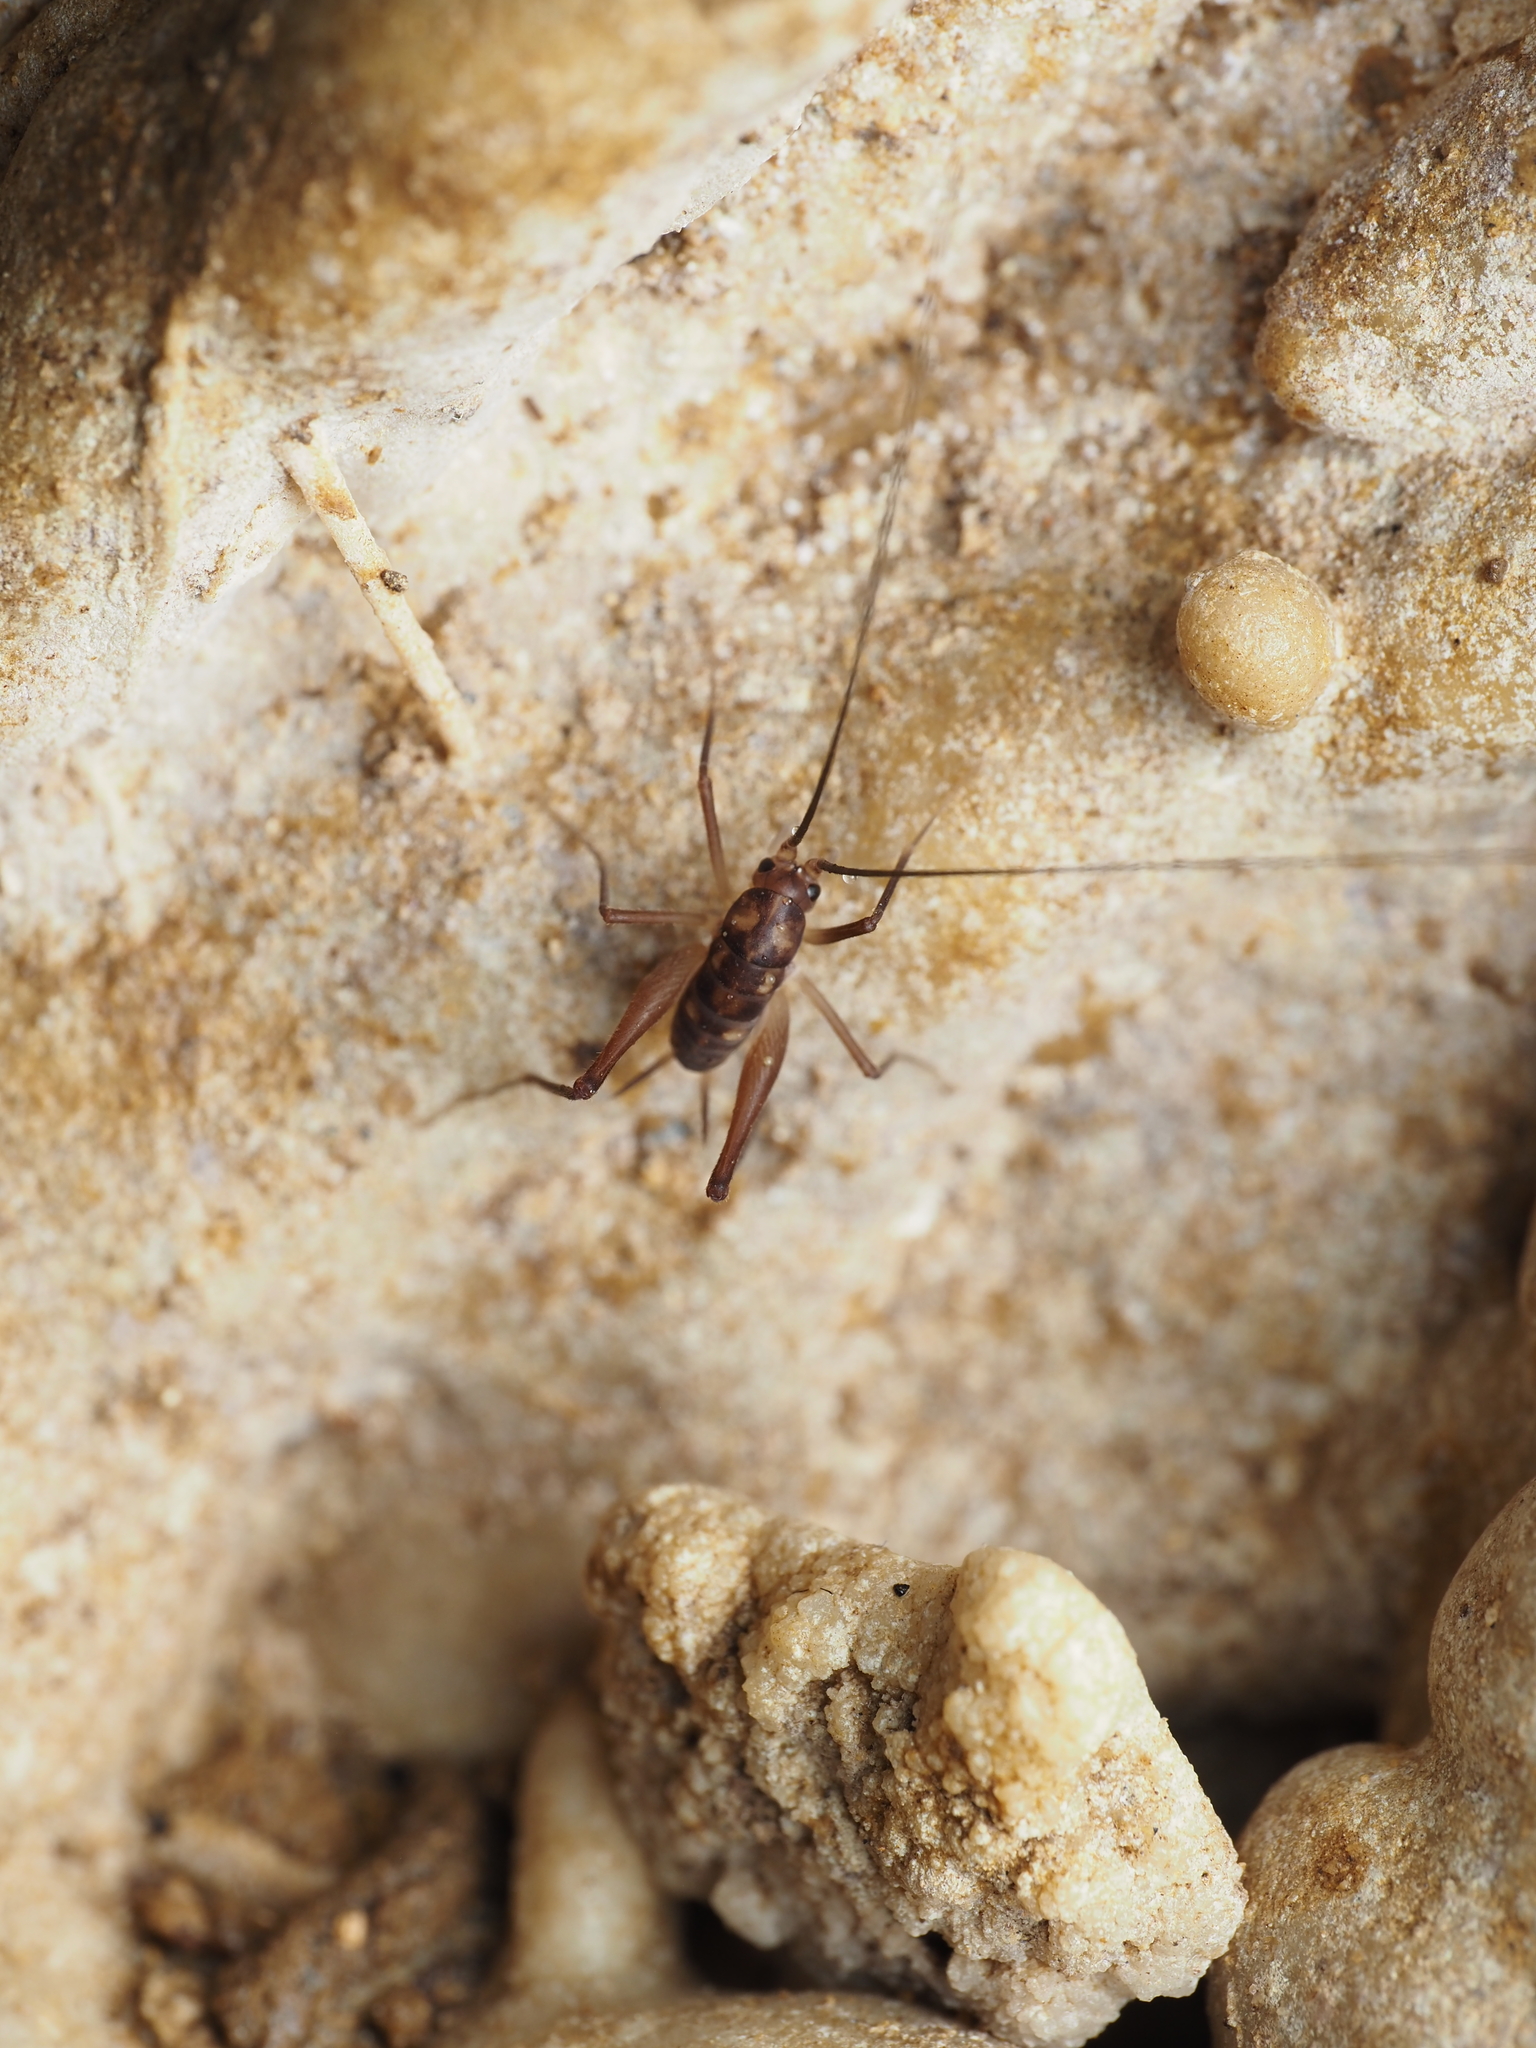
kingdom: Animalia
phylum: Arthropoda
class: Insecta
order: Orthoptera
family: Rhaphidophoridae
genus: Macropathus
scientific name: Macropathus filifer
